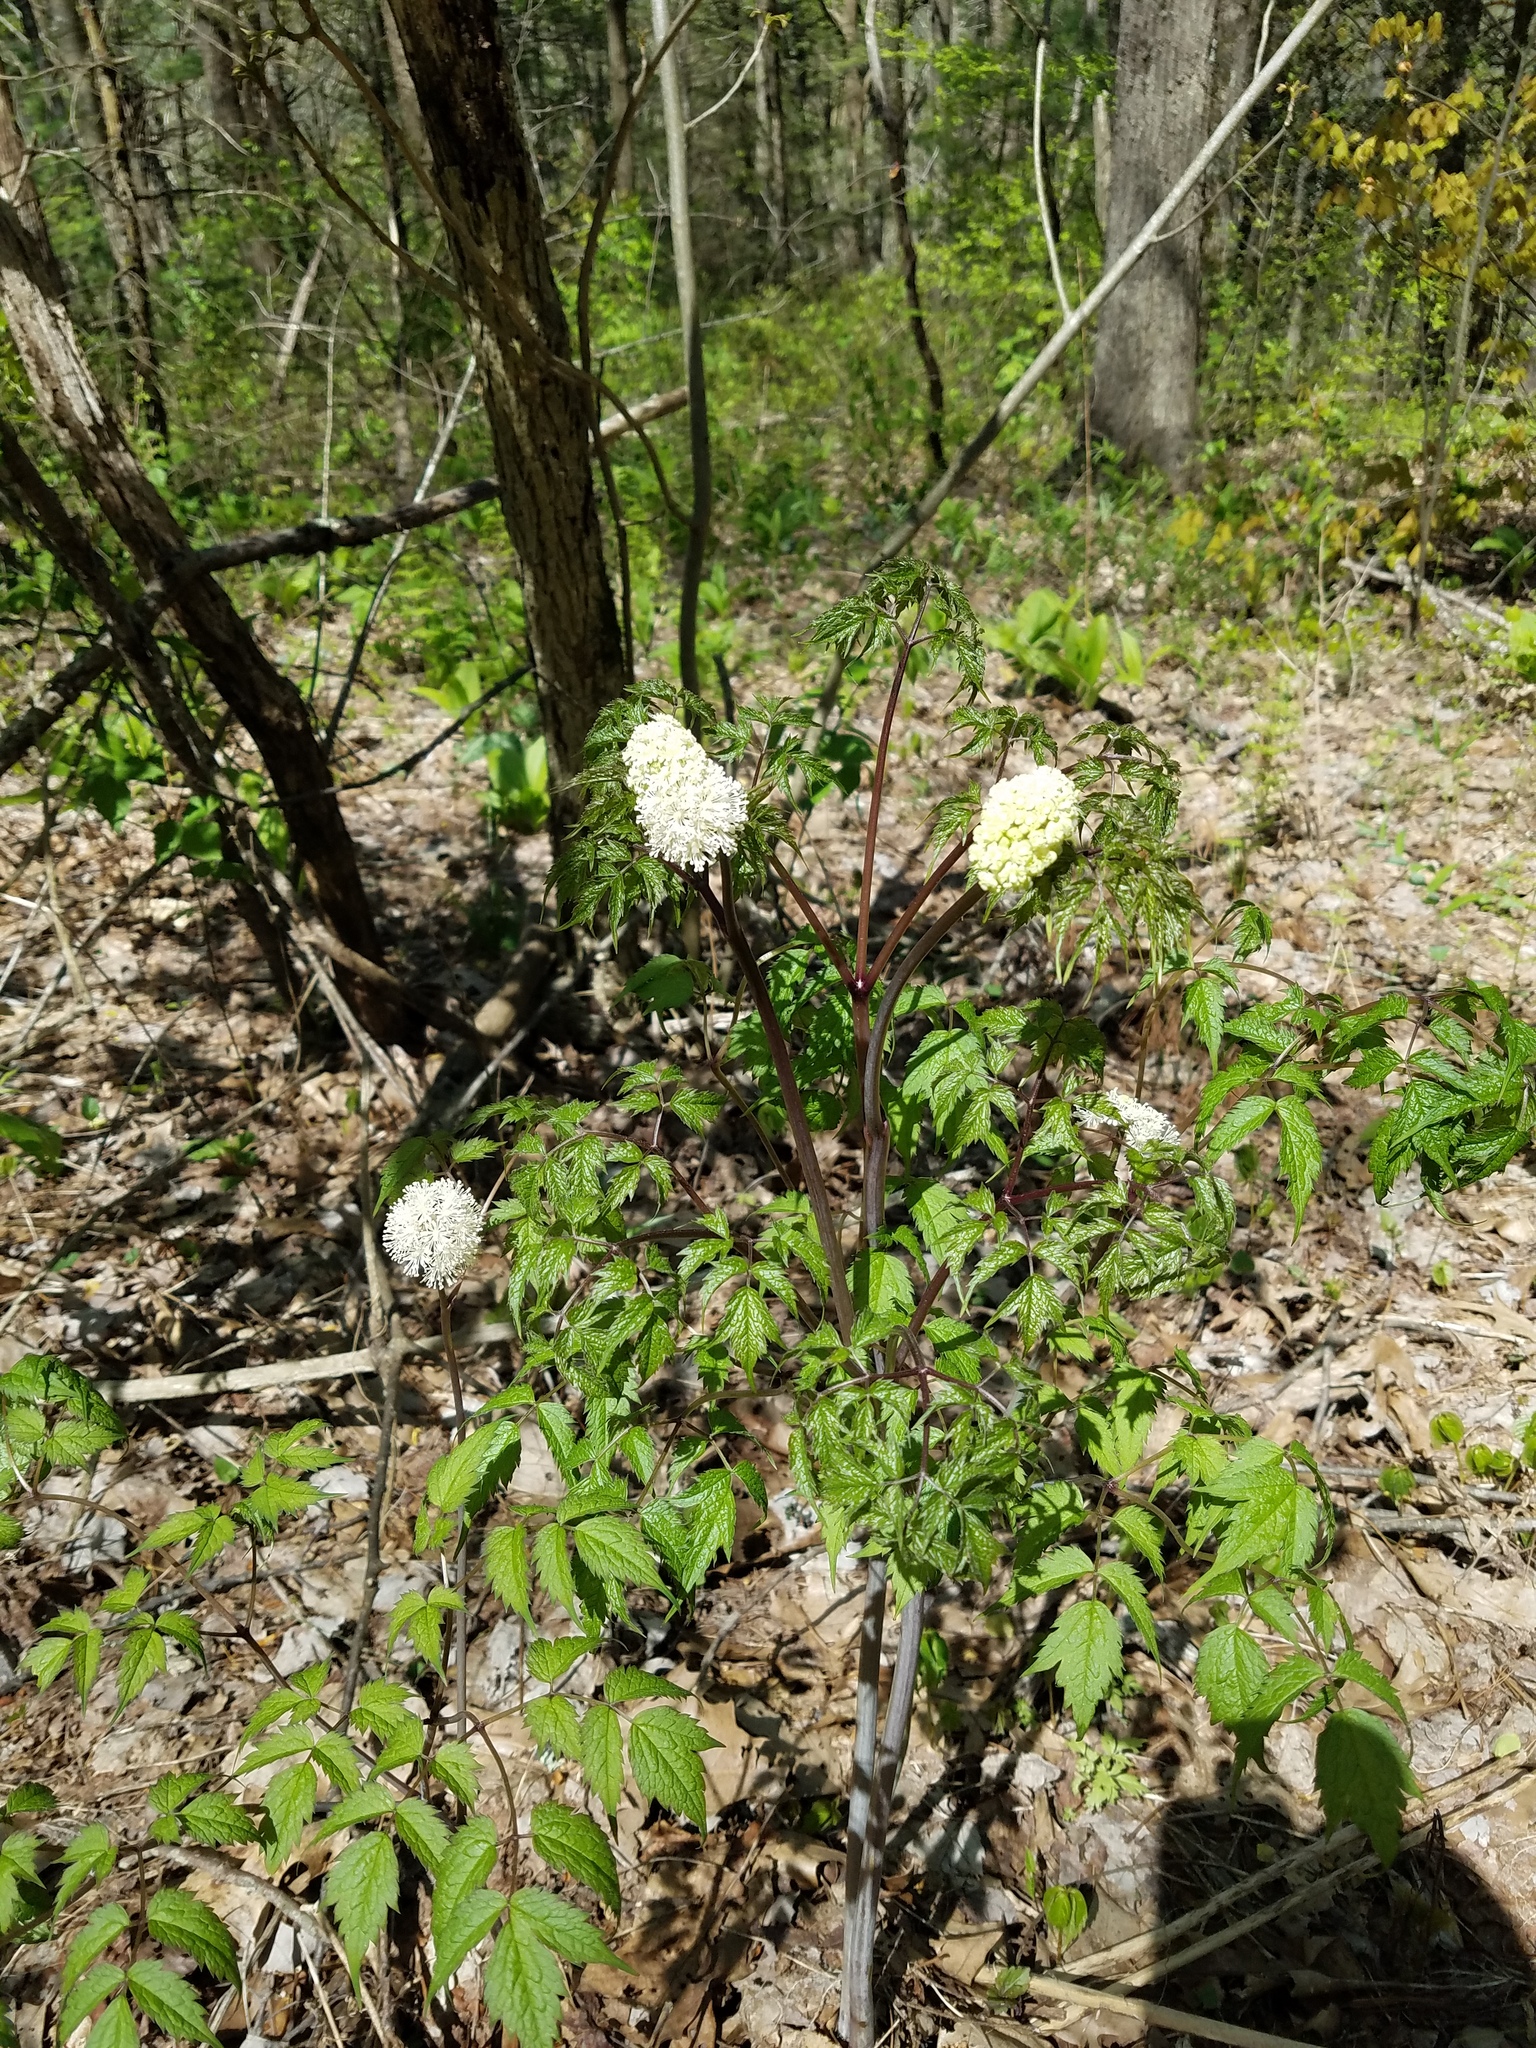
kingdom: Plantae
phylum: Tracheophyta
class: Magnoliopsida
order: Ranunculales
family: Ranunculaceae
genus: Actaea
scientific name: Actaea pachypoda
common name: Doll's-eyes
